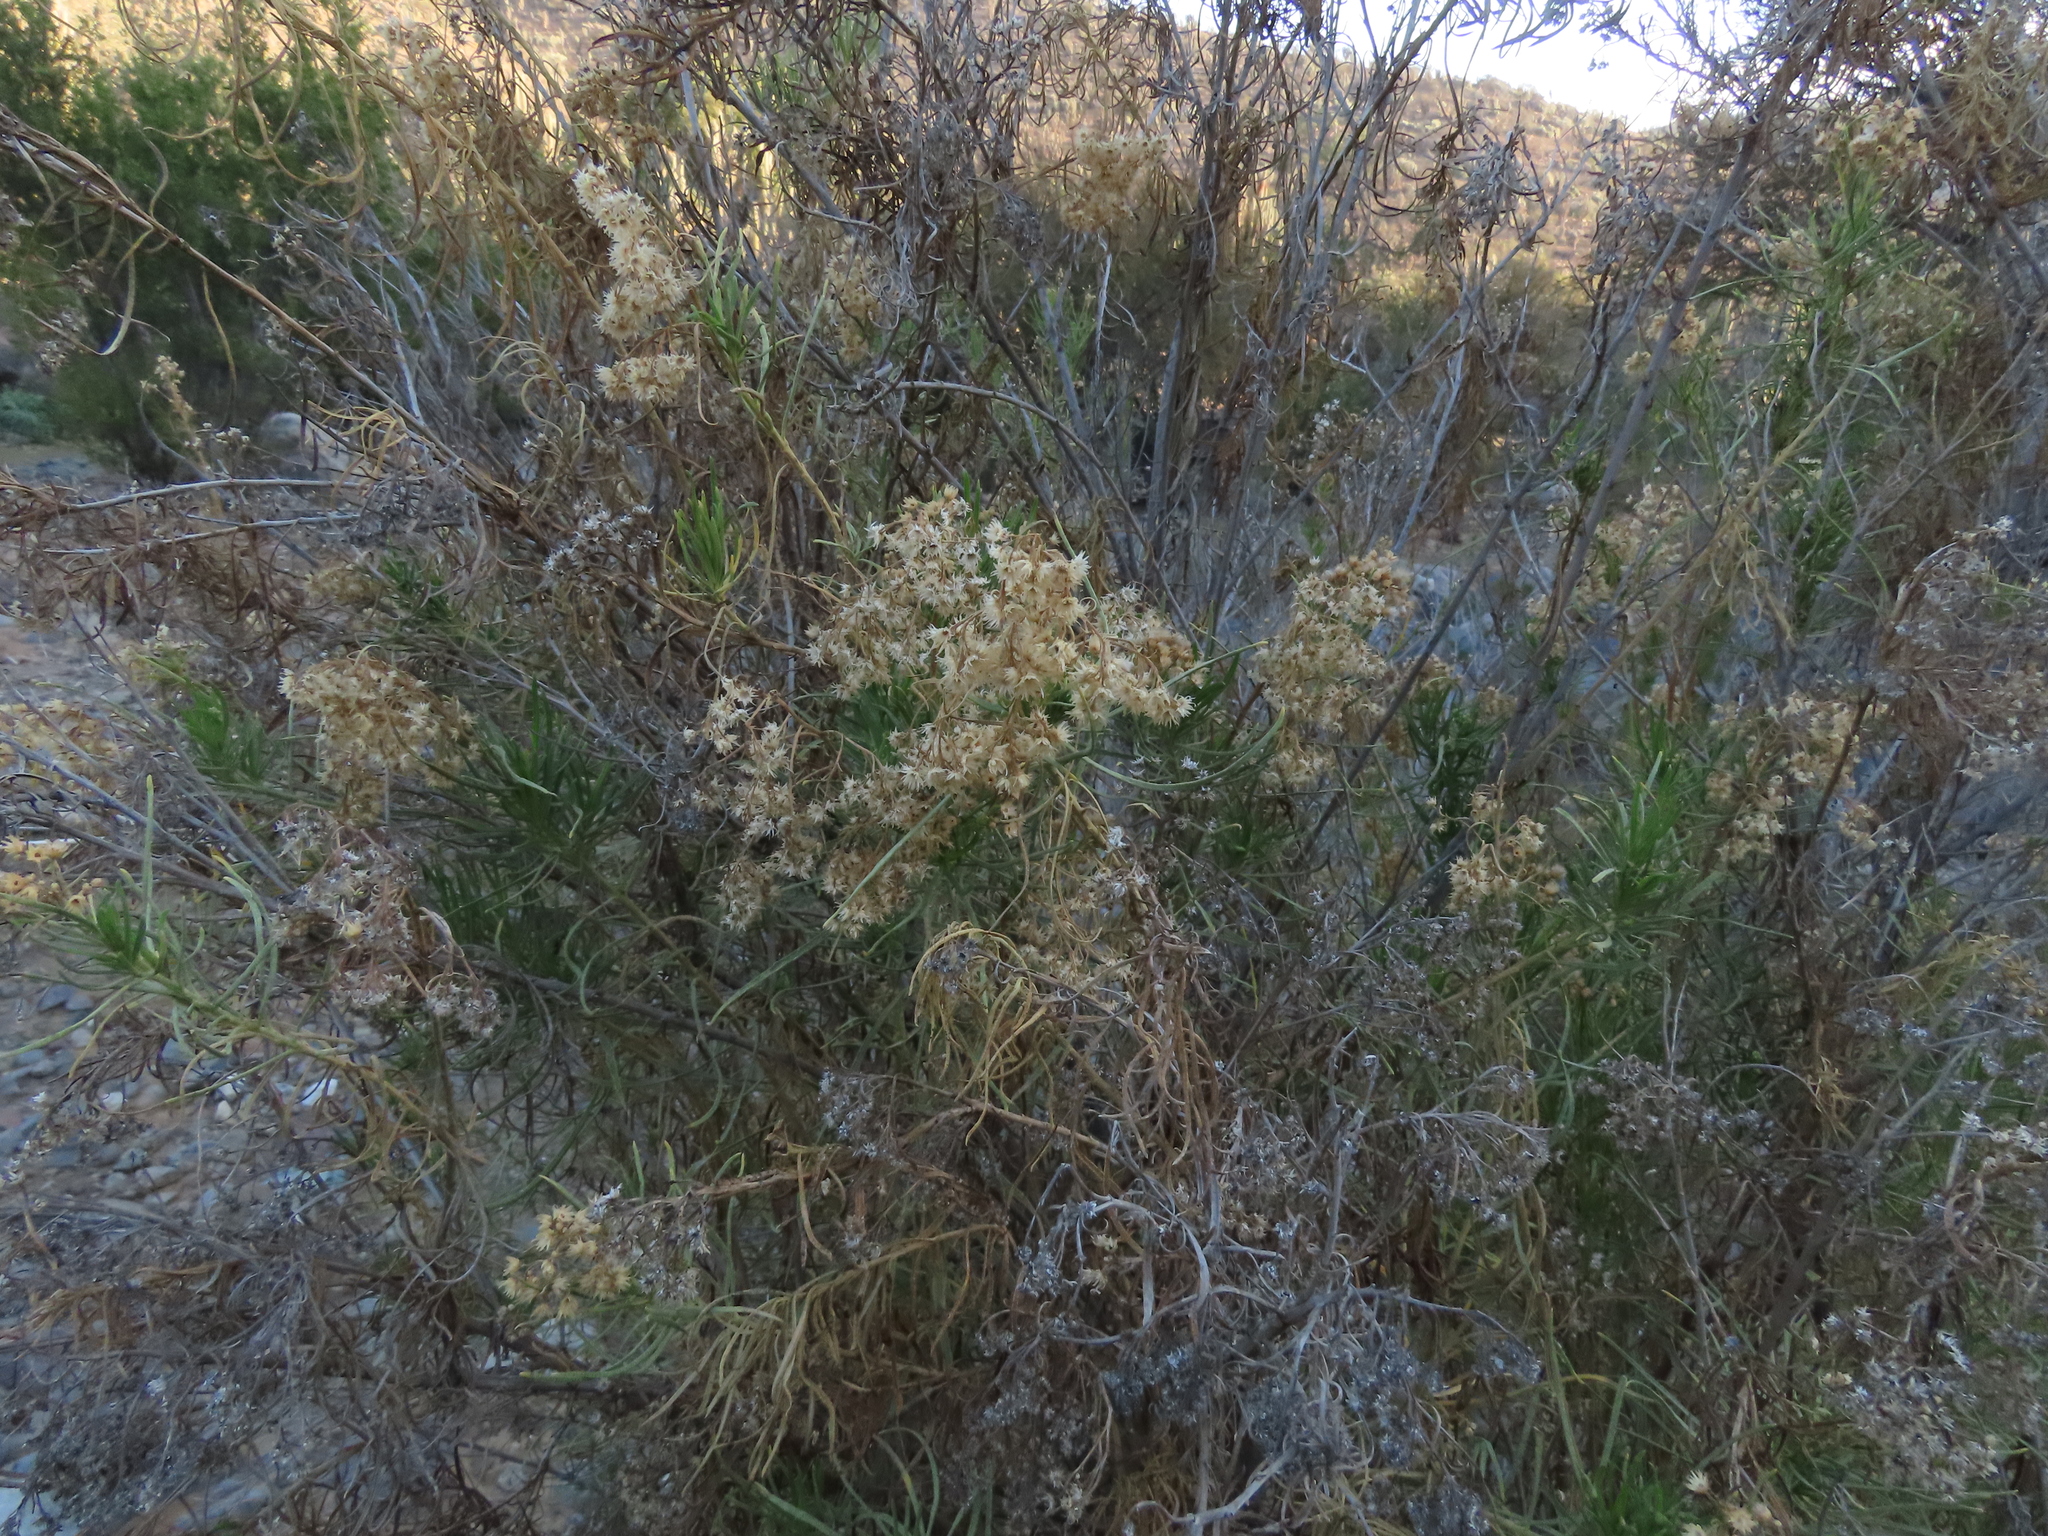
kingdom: Plantae
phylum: Tracheophyta
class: Magnoliopsida
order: Asterales
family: Asteraceae
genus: Baccharis
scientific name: Baccharis salicifolia
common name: Sticky baccharis
